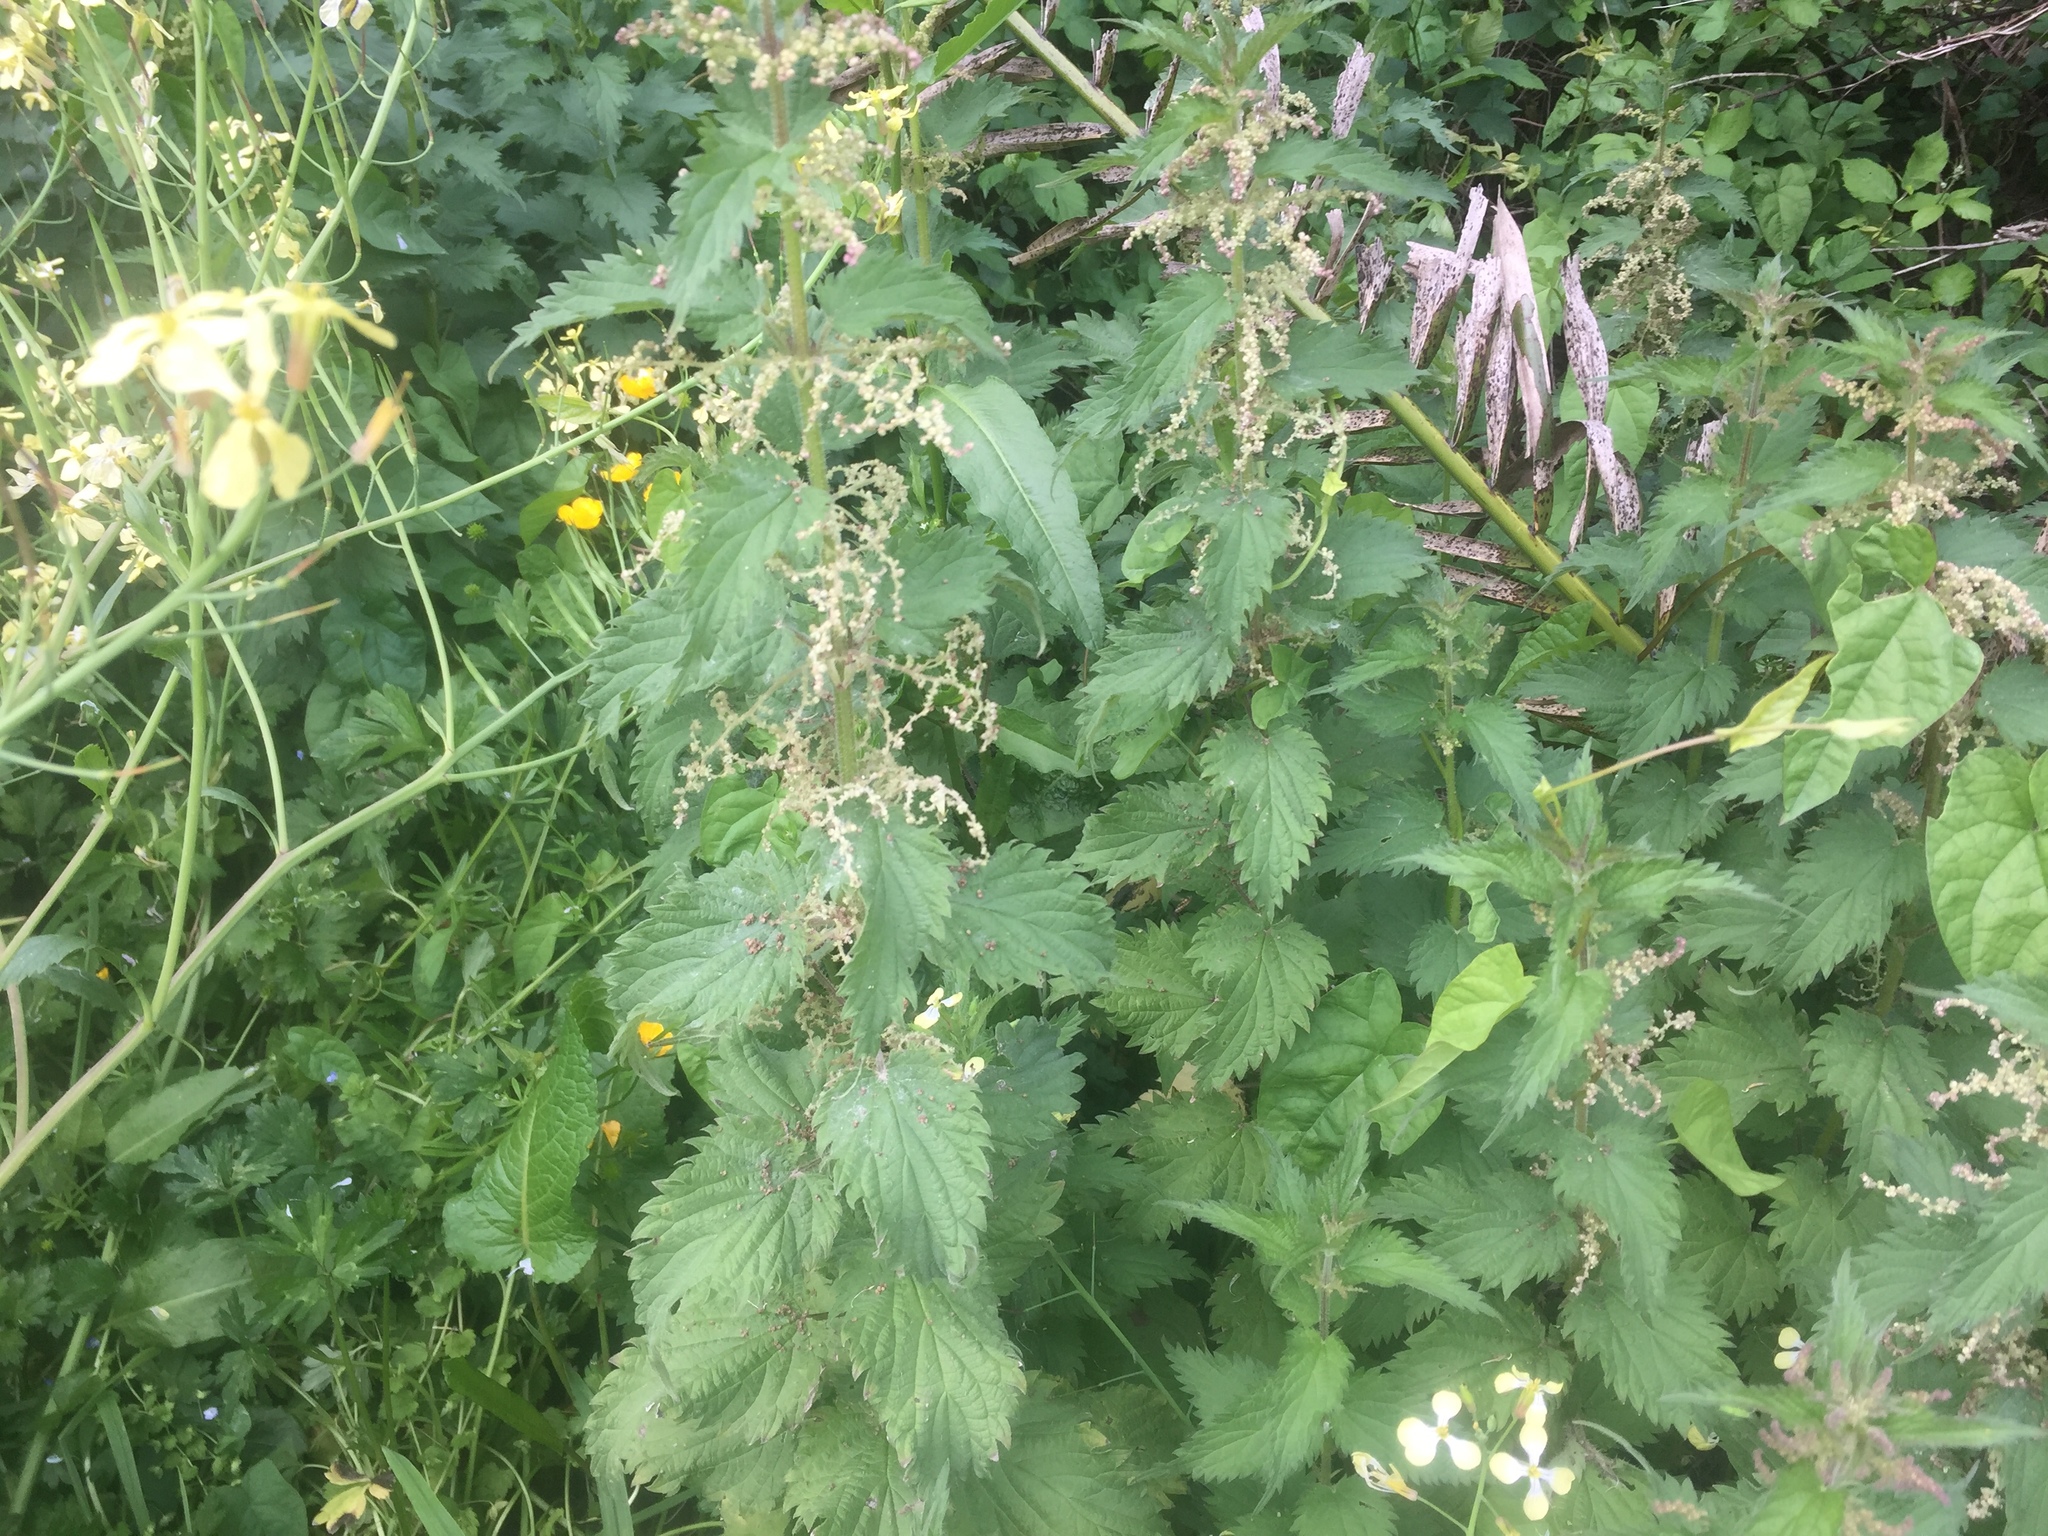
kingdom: Plantae
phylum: Tracheophyta
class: Magnoliopsida
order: Rosales
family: Urticaceae
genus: Urtica
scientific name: Urtica dioica
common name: Common nettle
